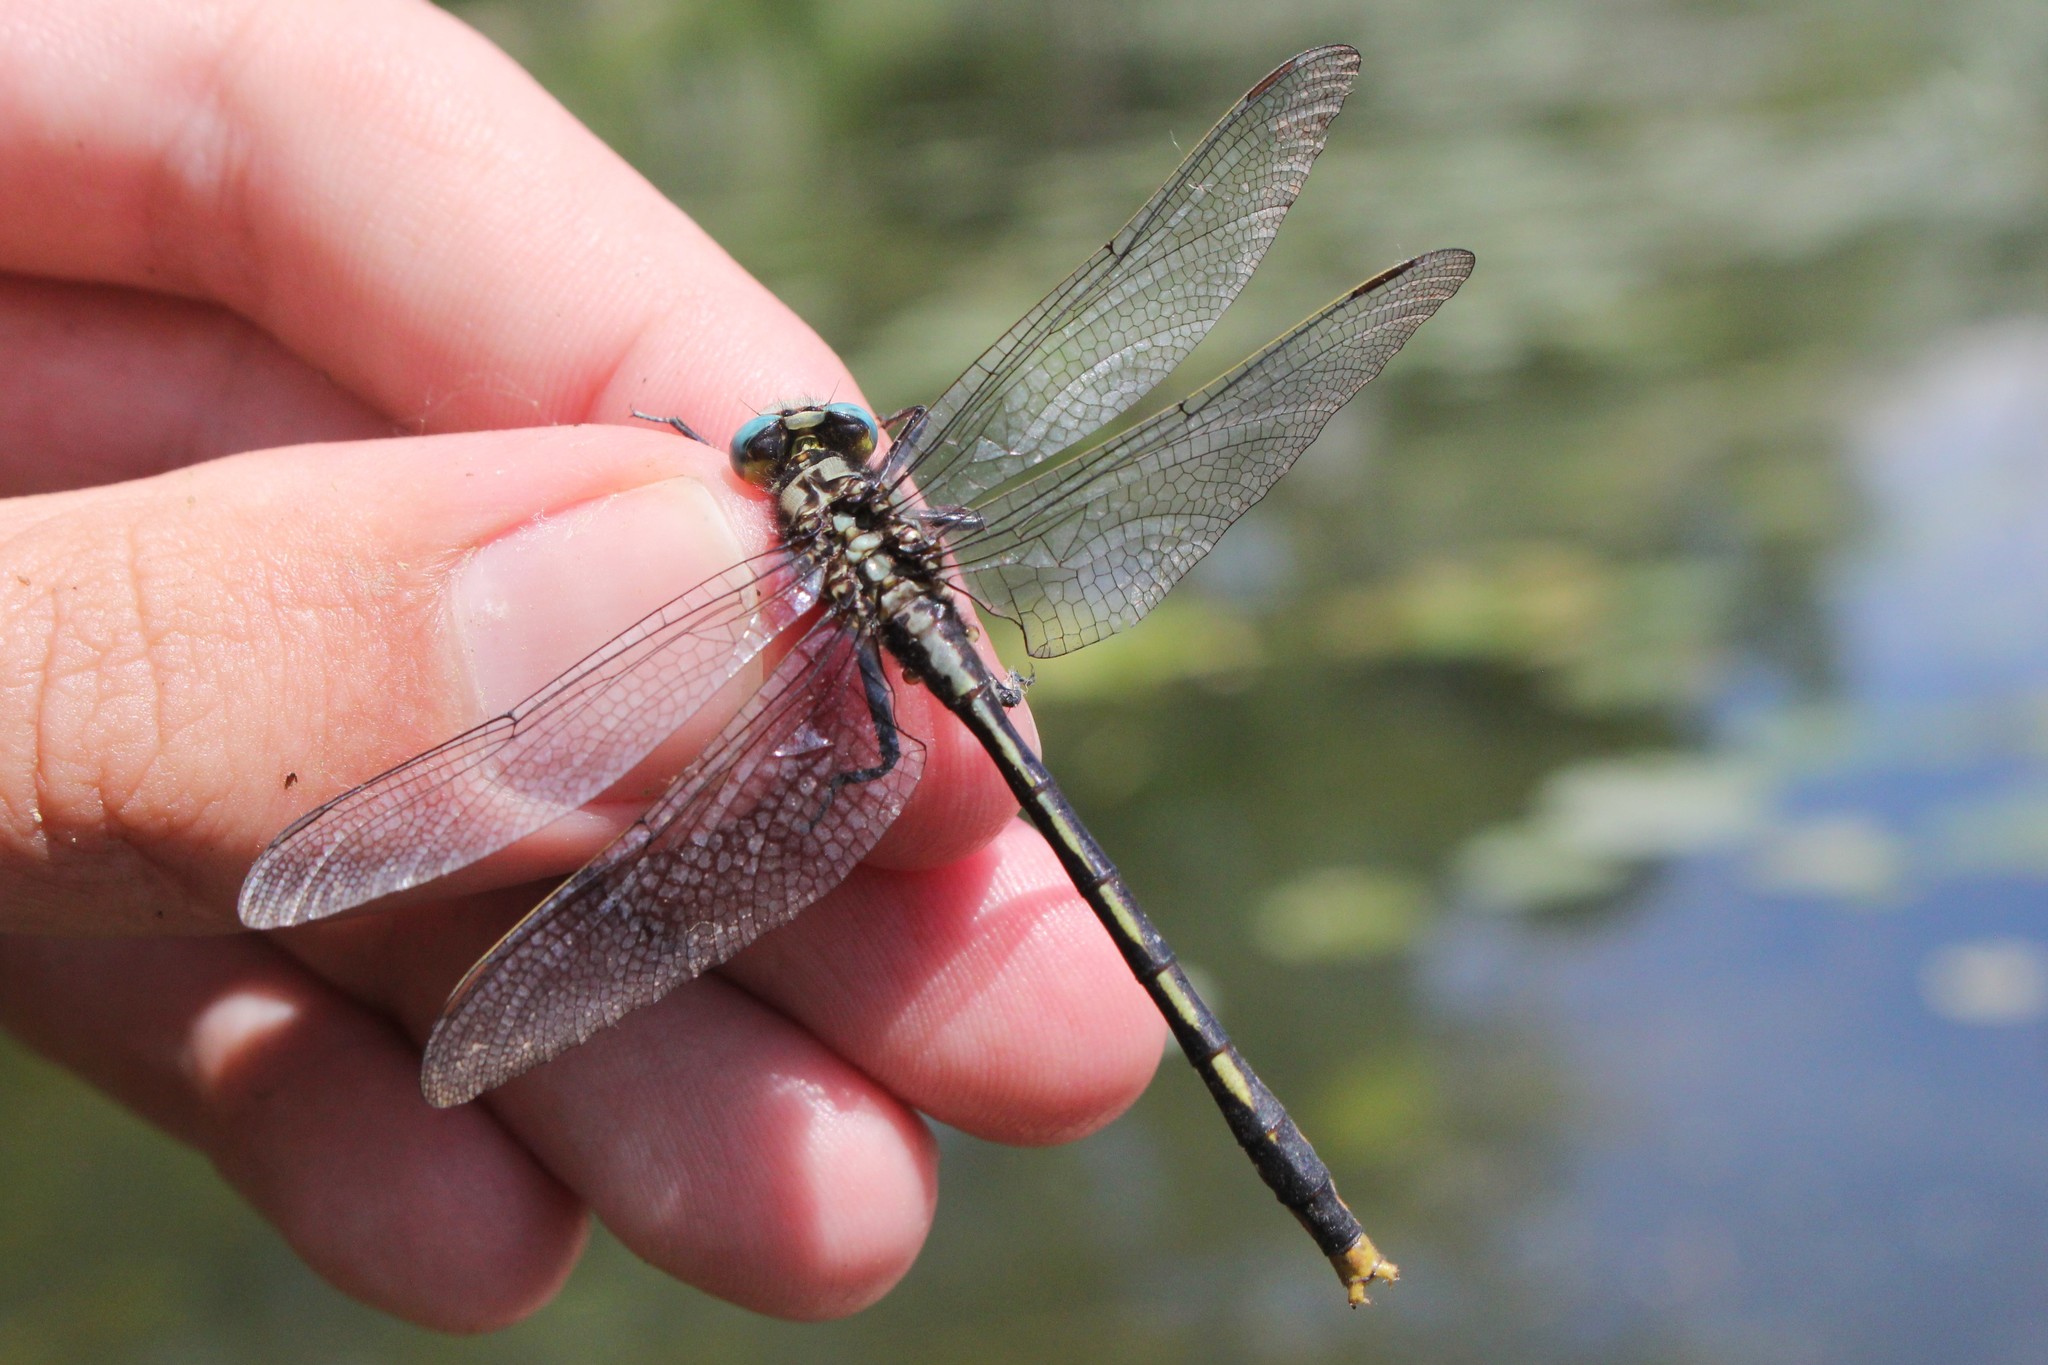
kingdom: Animalia
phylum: Arthropoda
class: Insecta
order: Odonata
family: Gomphidae
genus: Arigomphus
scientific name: Arigomphus furcifer
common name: Lilypad clubtail
